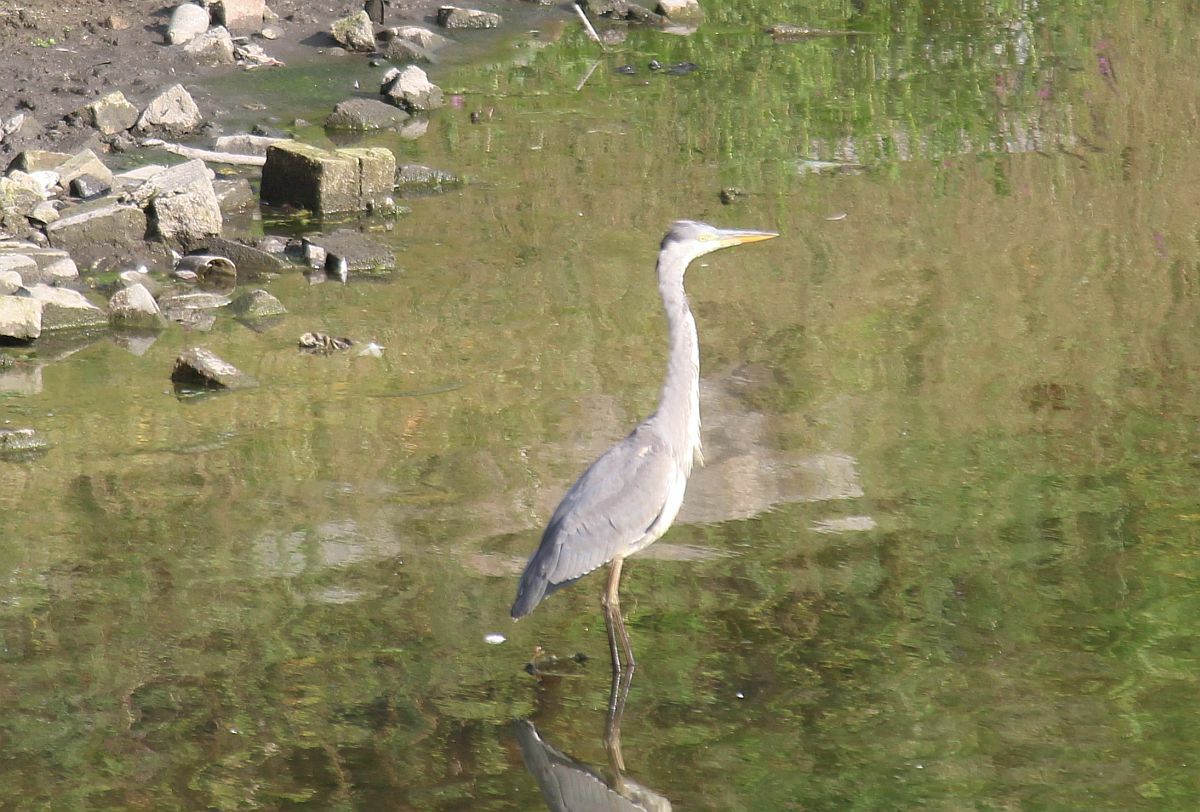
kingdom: Animalia
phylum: Chordata
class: Aves
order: Pelecaniformes
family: Ardeidae
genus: Ardea
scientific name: Ardea cinerea
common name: Grey heron
